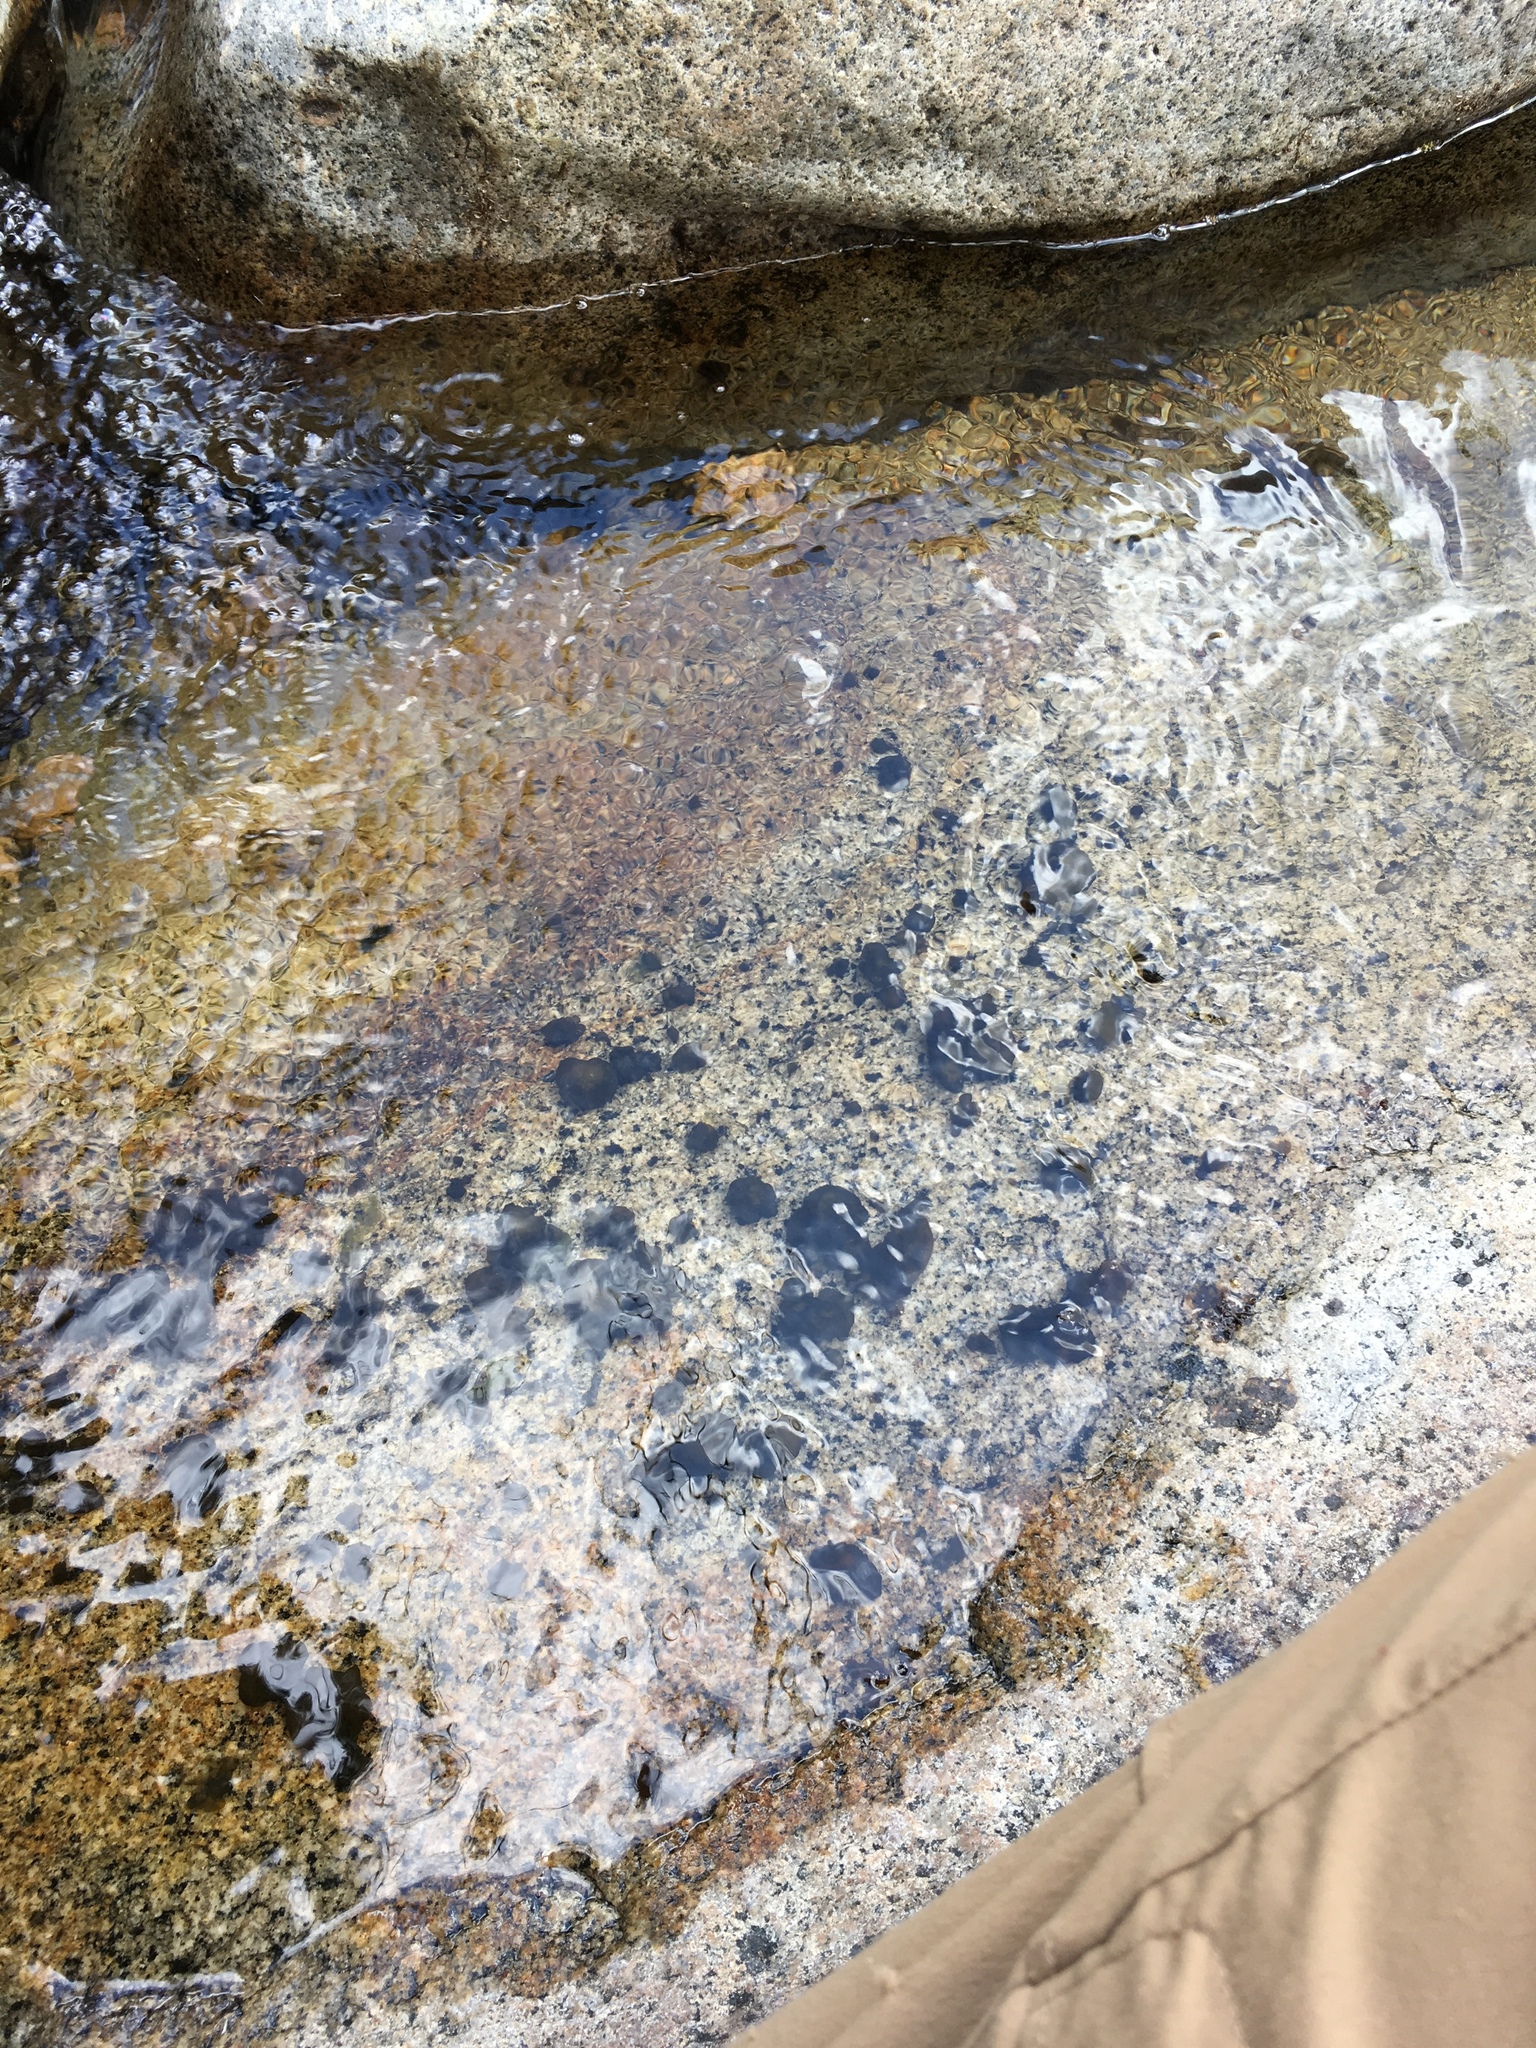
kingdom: Bacteria
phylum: Cyanobacteria
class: Cyanobacteriia
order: Cyanobacteriales
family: Nostocaceae
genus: Nostoc
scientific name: Nostoc commune
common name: Star jelly
